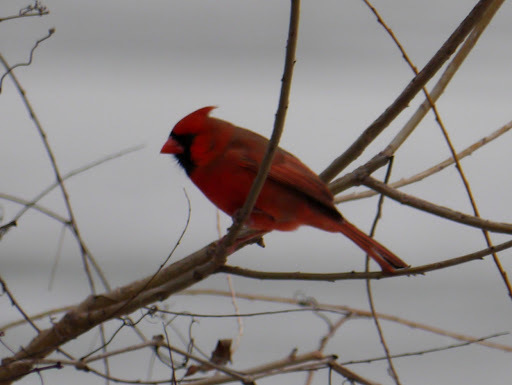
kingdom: Animalia
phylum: Chordata
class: Aves
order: Passeriformes
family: Cardinalidae
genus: Cardinalis
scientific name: Cardinalis cardinalis
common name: Northern cardinal
